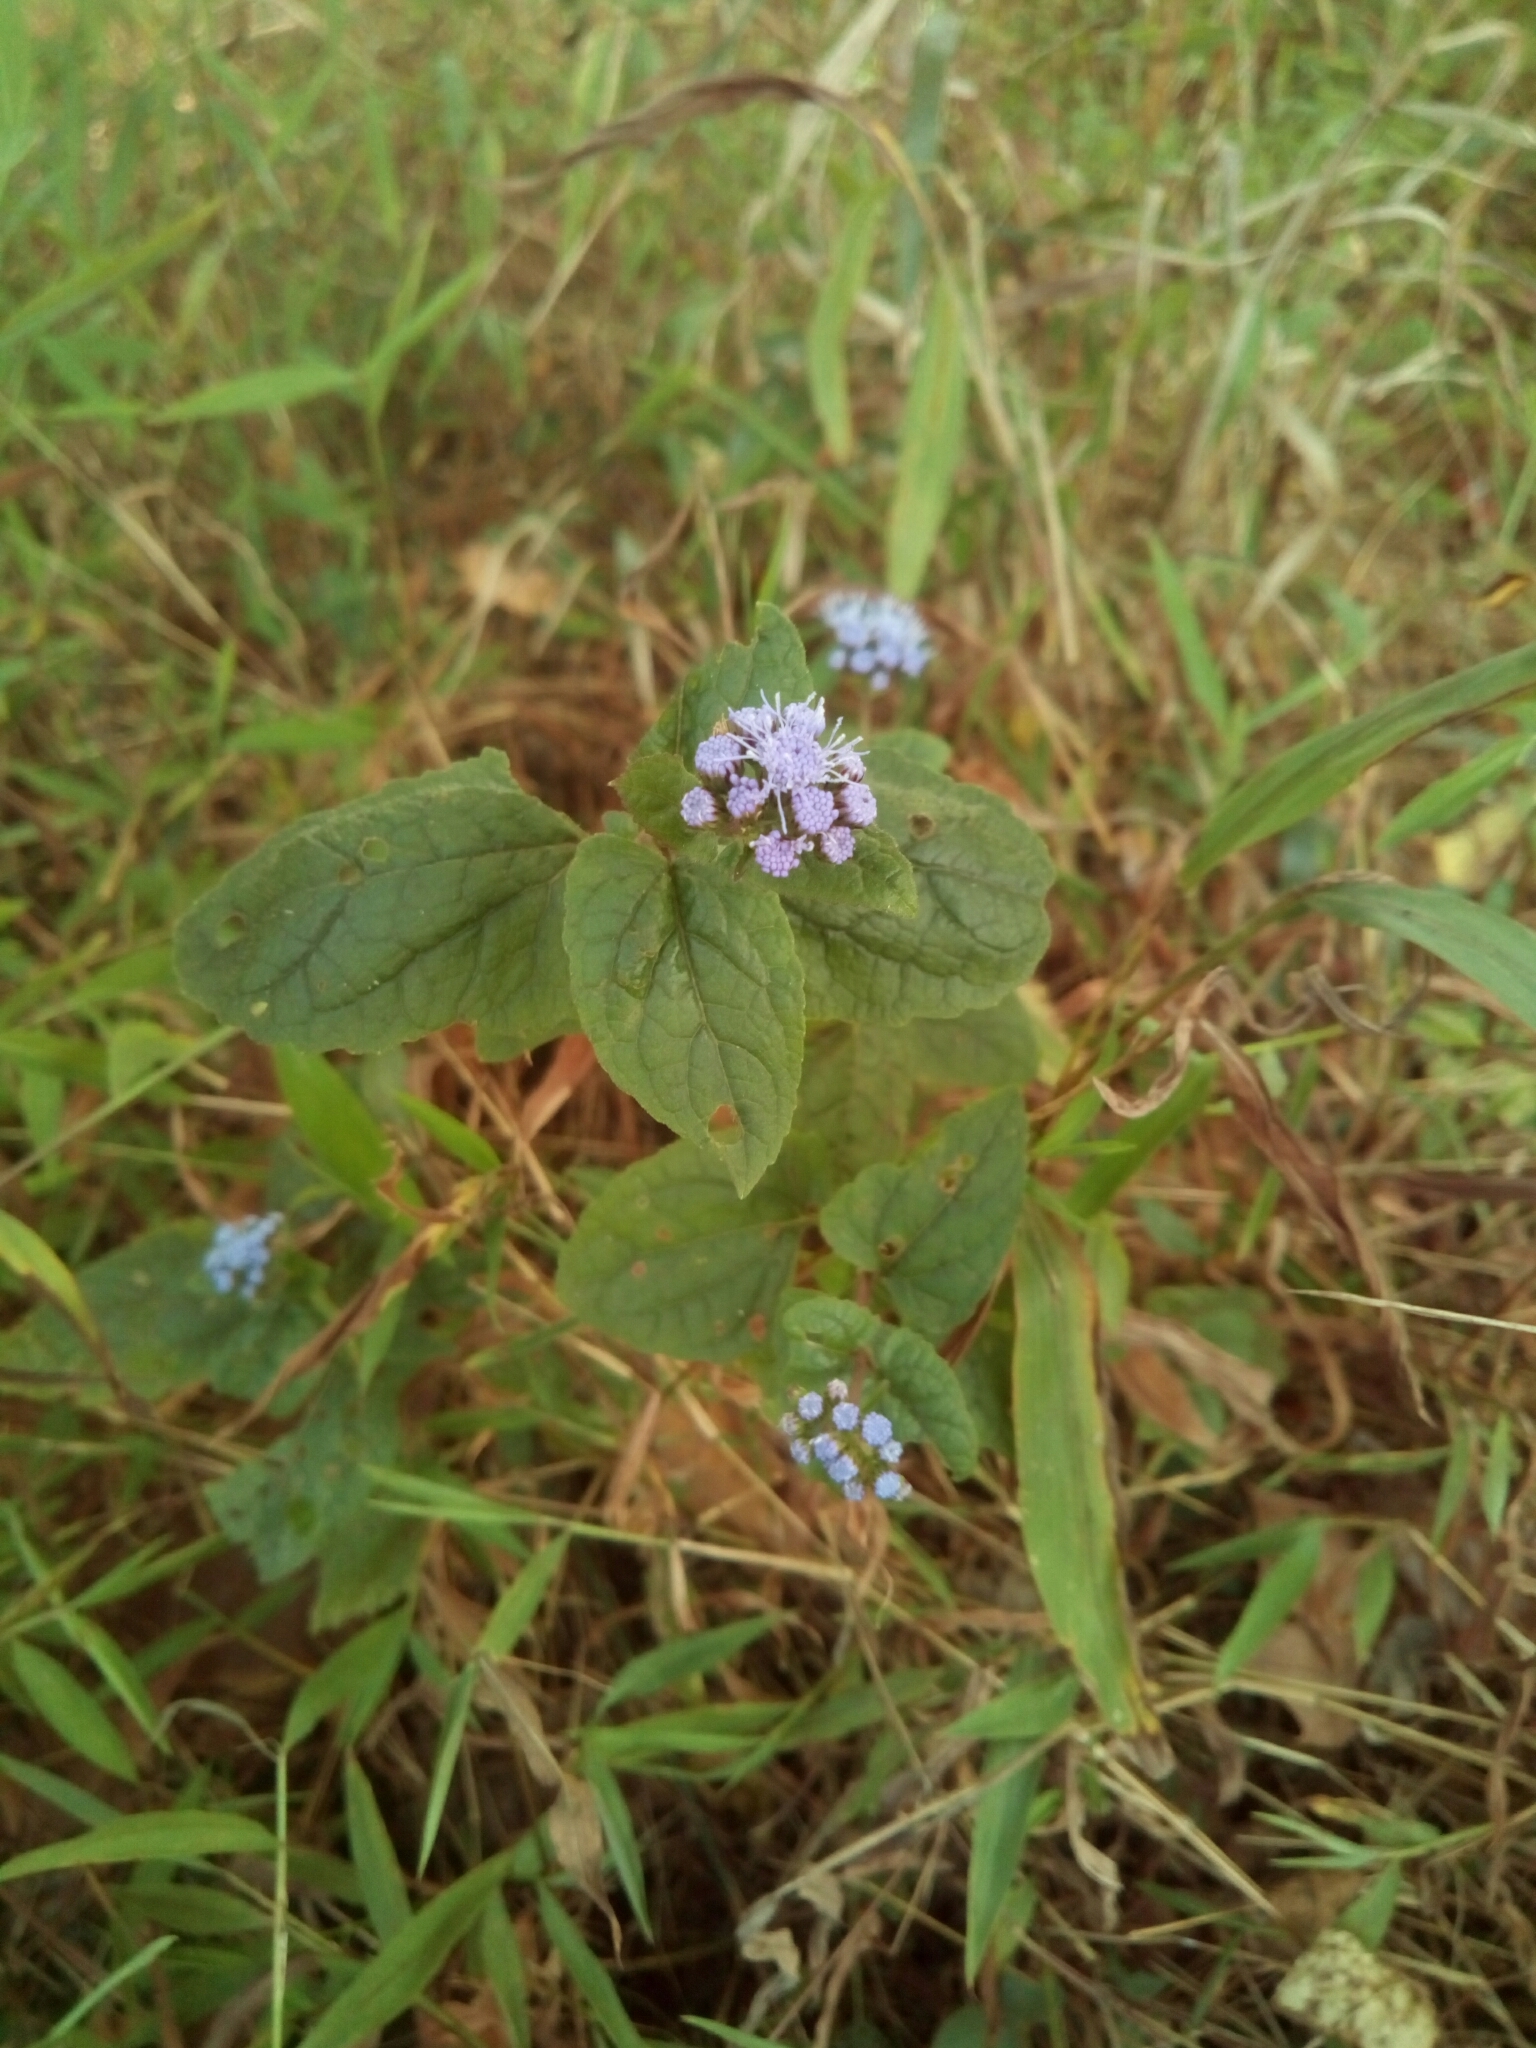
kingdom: Plantae
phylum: Tracheophyta
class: Magnoliopsida
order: Asterales
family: Asteraceae
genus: Conoclinium
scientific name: Conoclinium coelestinum
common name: Blue mistflower
